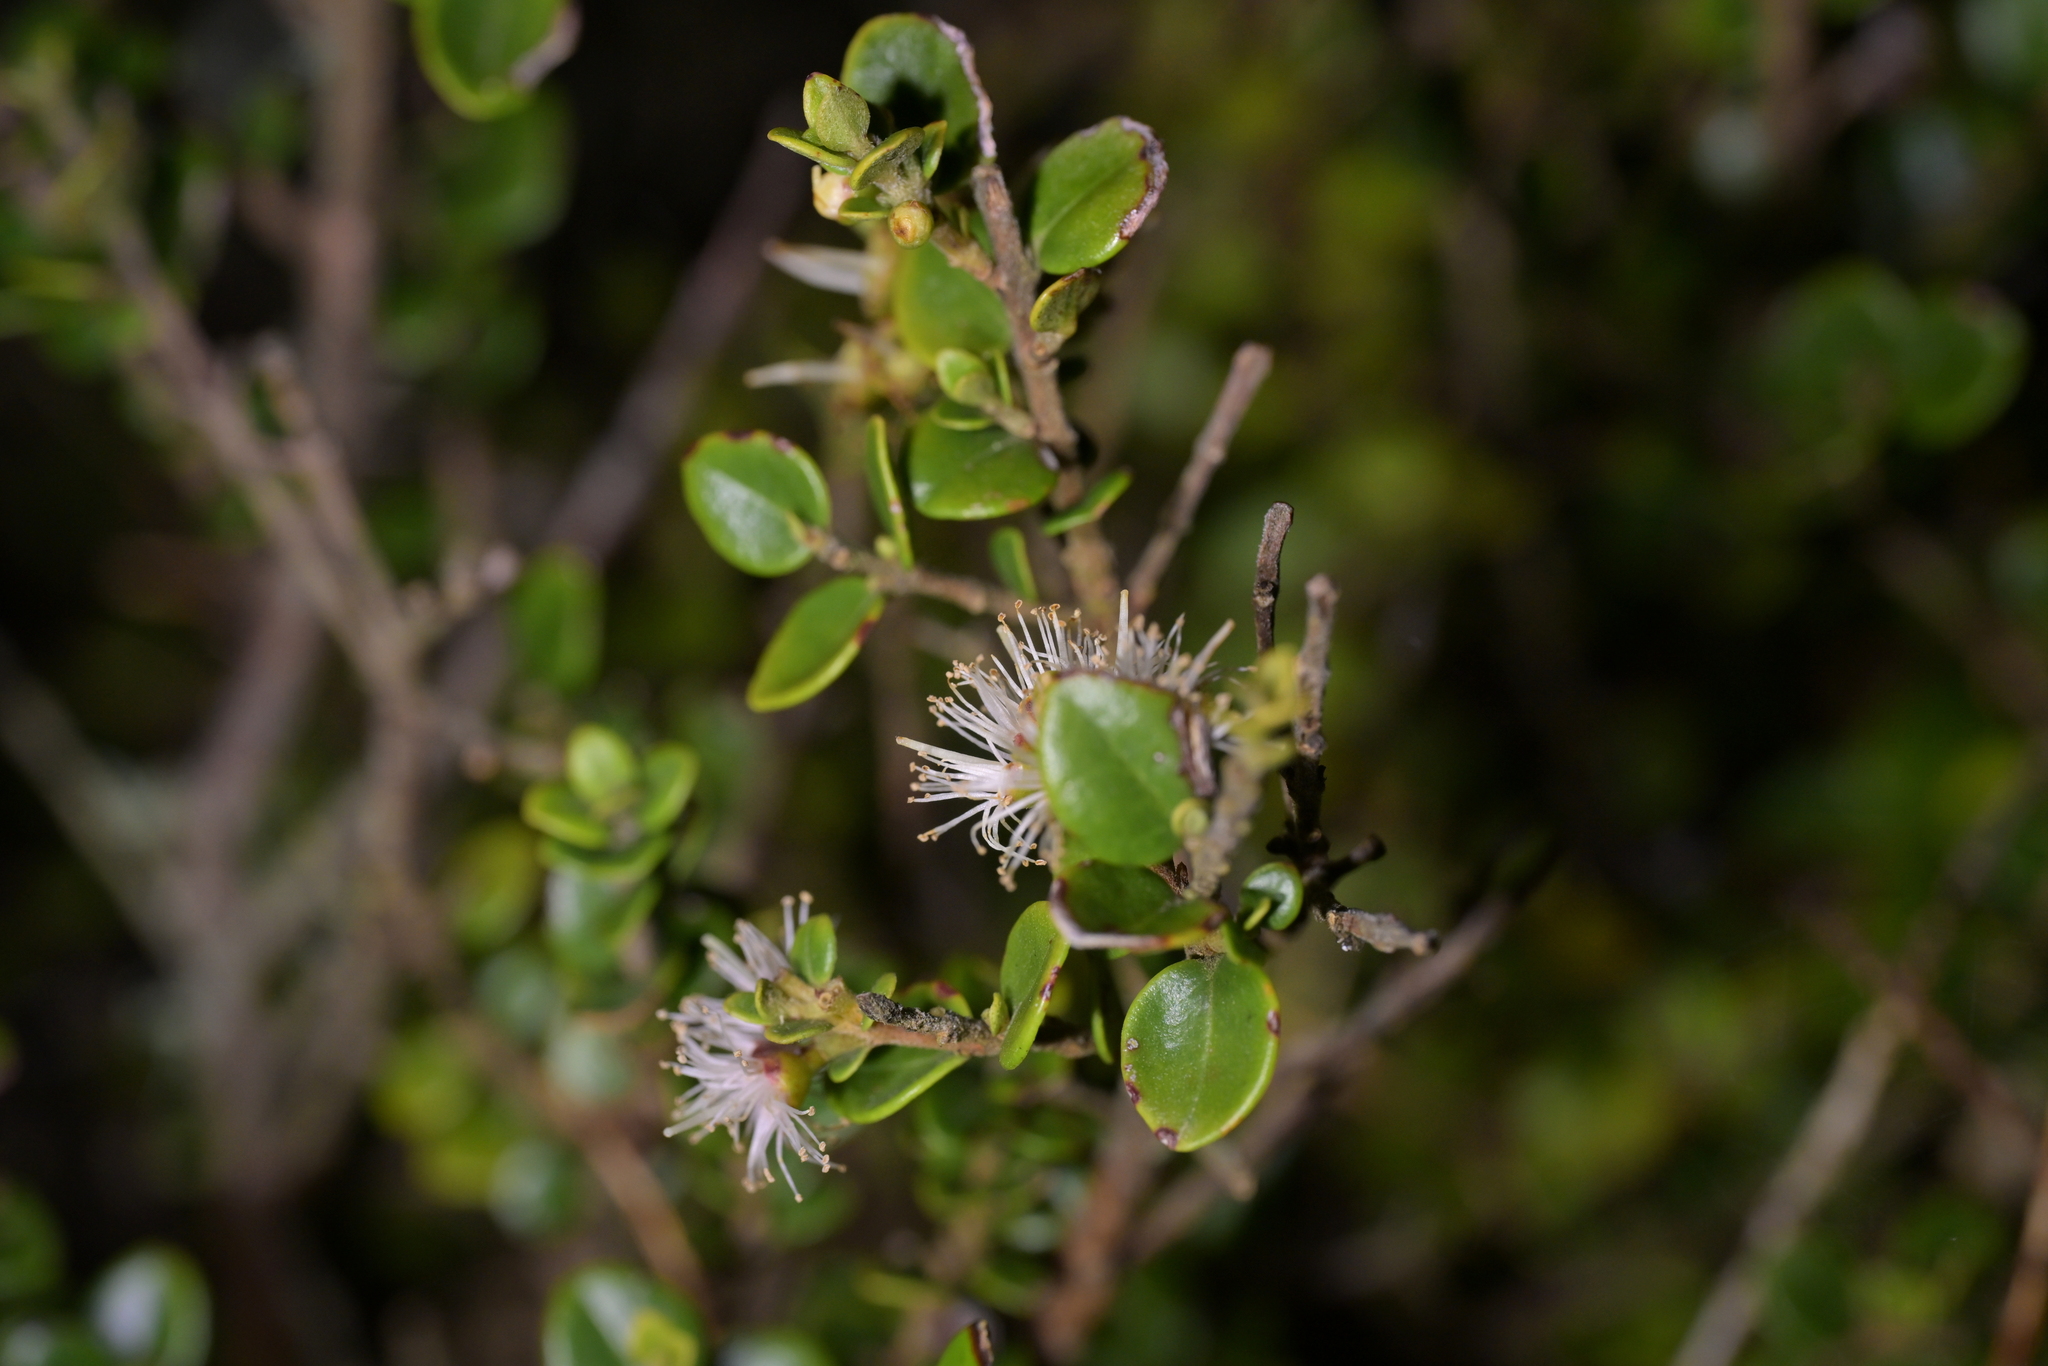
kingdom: Plantae
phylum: Tracheophyta
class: Magnoliopsida
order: Myrtales
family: Myrtaceae
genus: Metrosideros
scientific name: Metrosideros perforata
